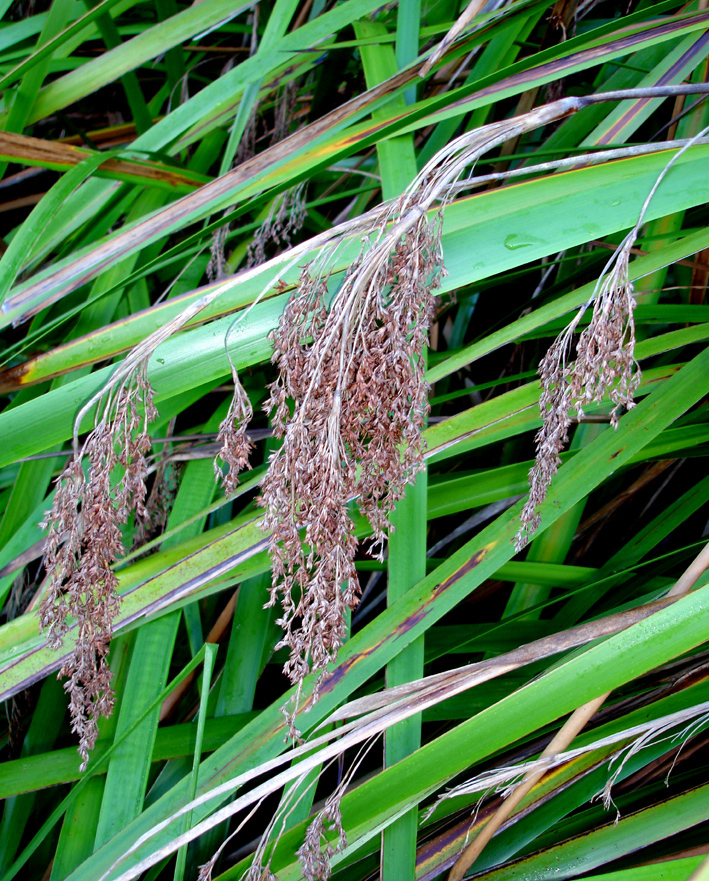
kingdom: Plantae
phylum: Tracheophyta
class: Liliopsida
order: Poales
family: Cyperaceae
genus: Machaerina
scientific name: Machaerina sinclairii
